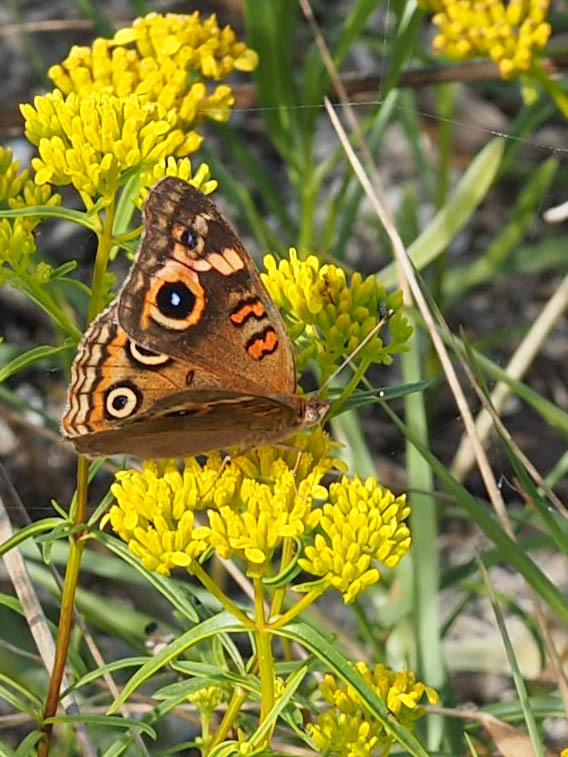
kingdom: Animalia
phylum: Arthropoda
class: Insecta
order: Lepidoptera
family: Nymphalidae
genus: Junonia
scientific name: Junonia neildi
